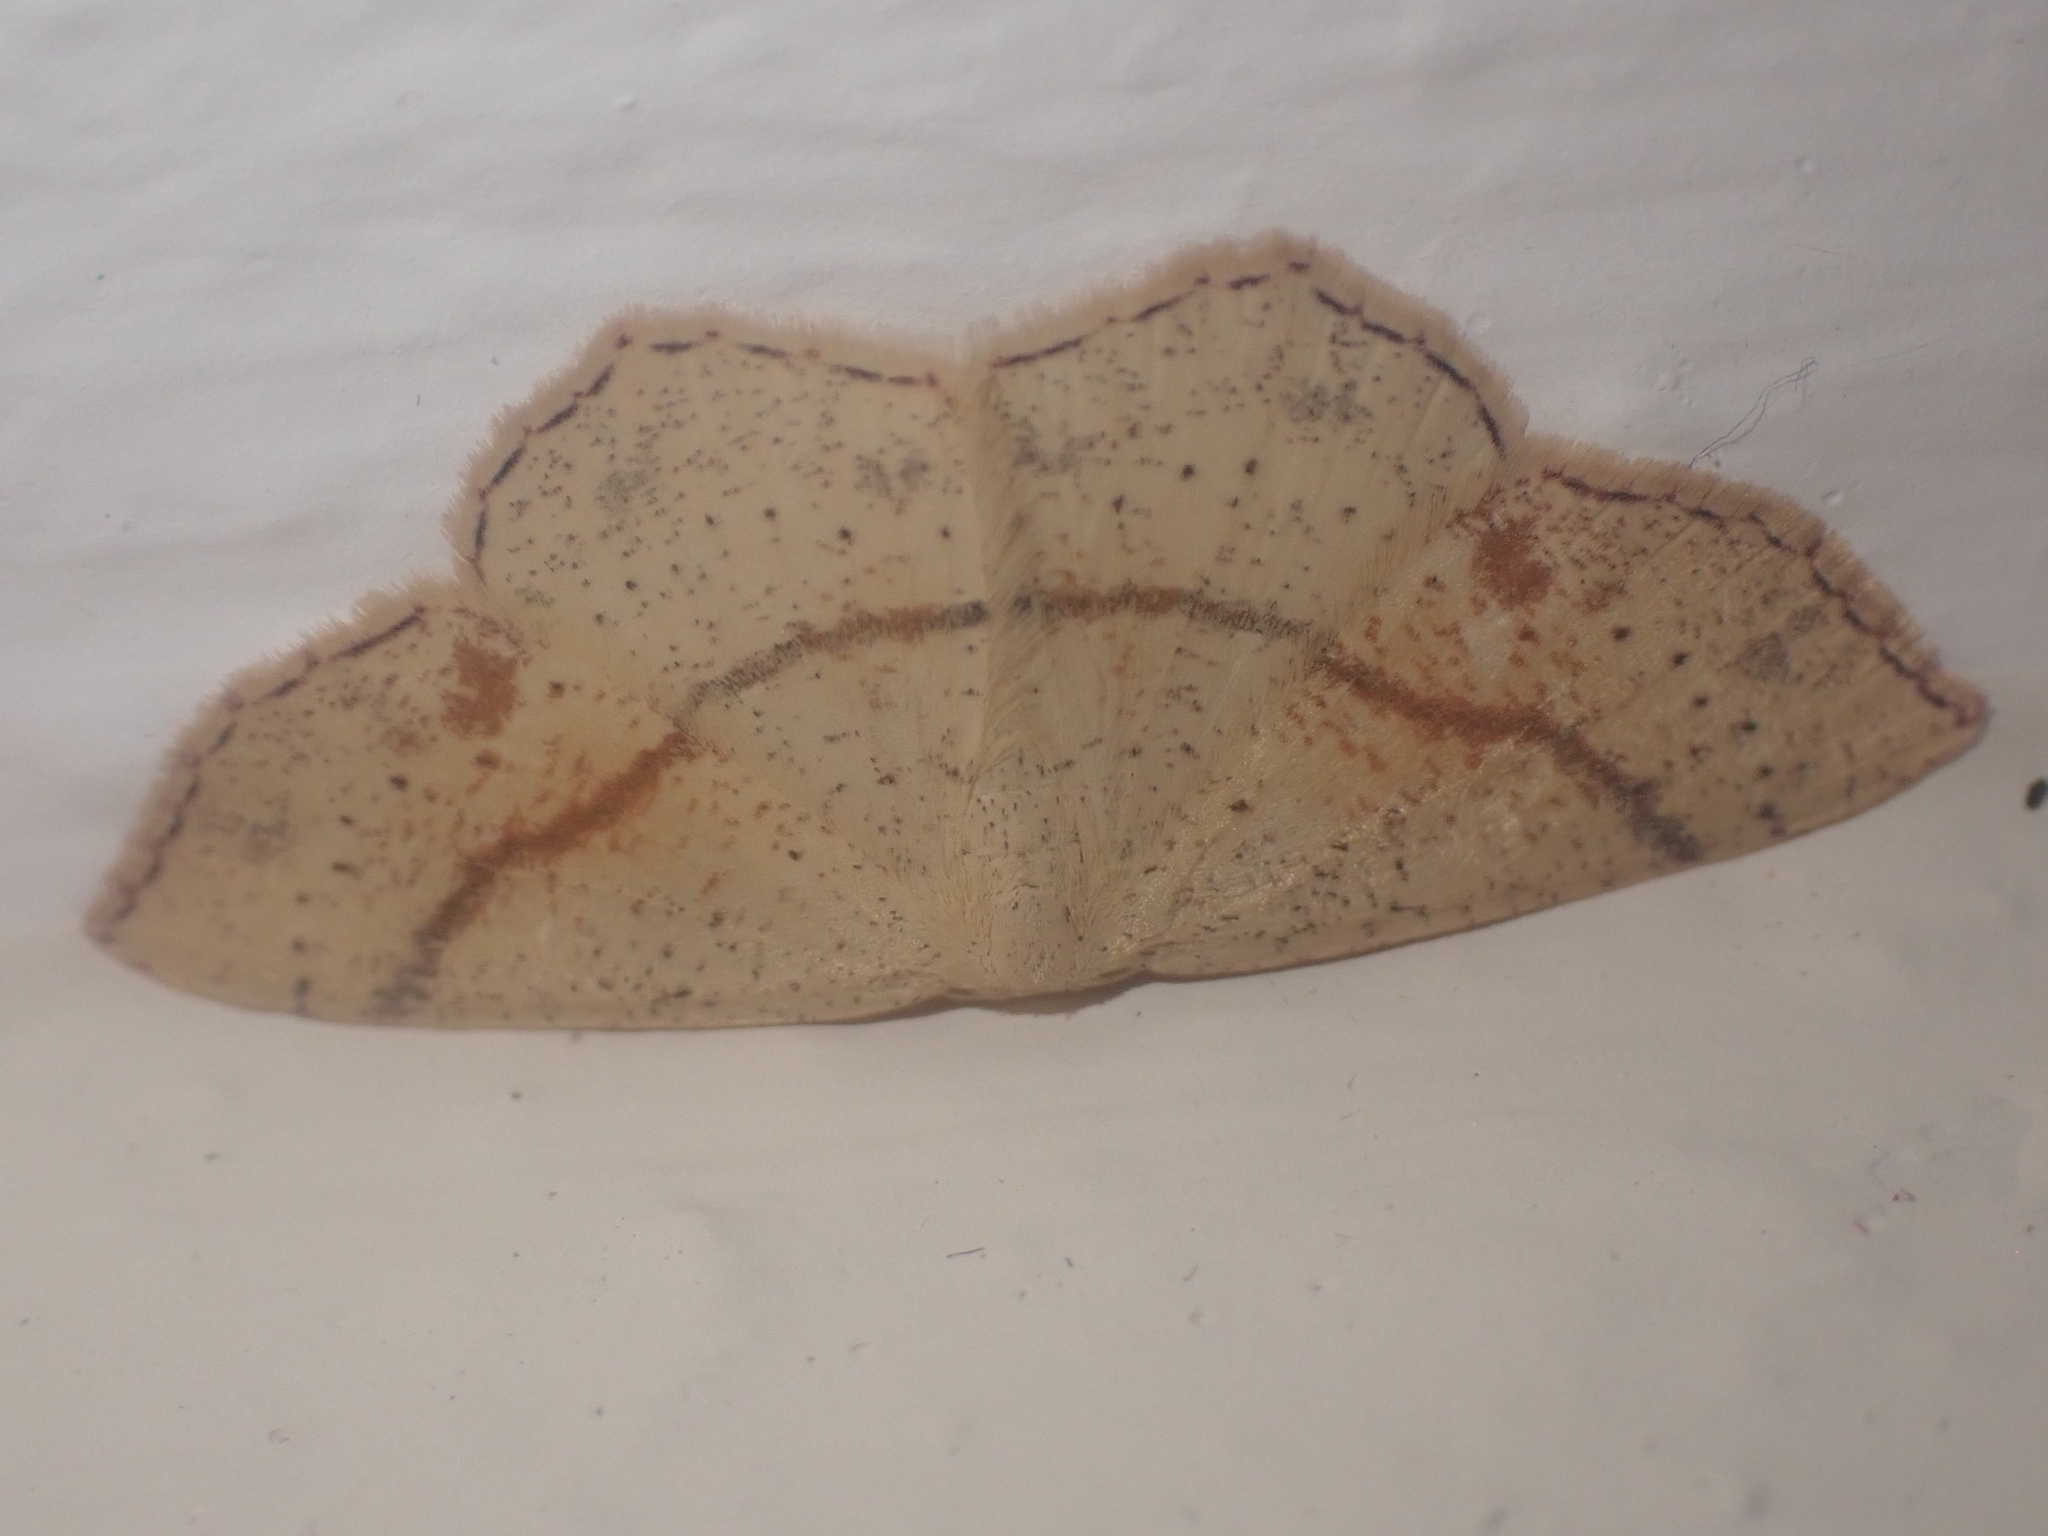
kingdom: Animalia
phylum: Arthropoda
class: Insecta
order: Lepidoptera
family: Geometridae
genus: Cyclophora
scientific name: Cyclophora punctaria
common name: Maiden's blush
